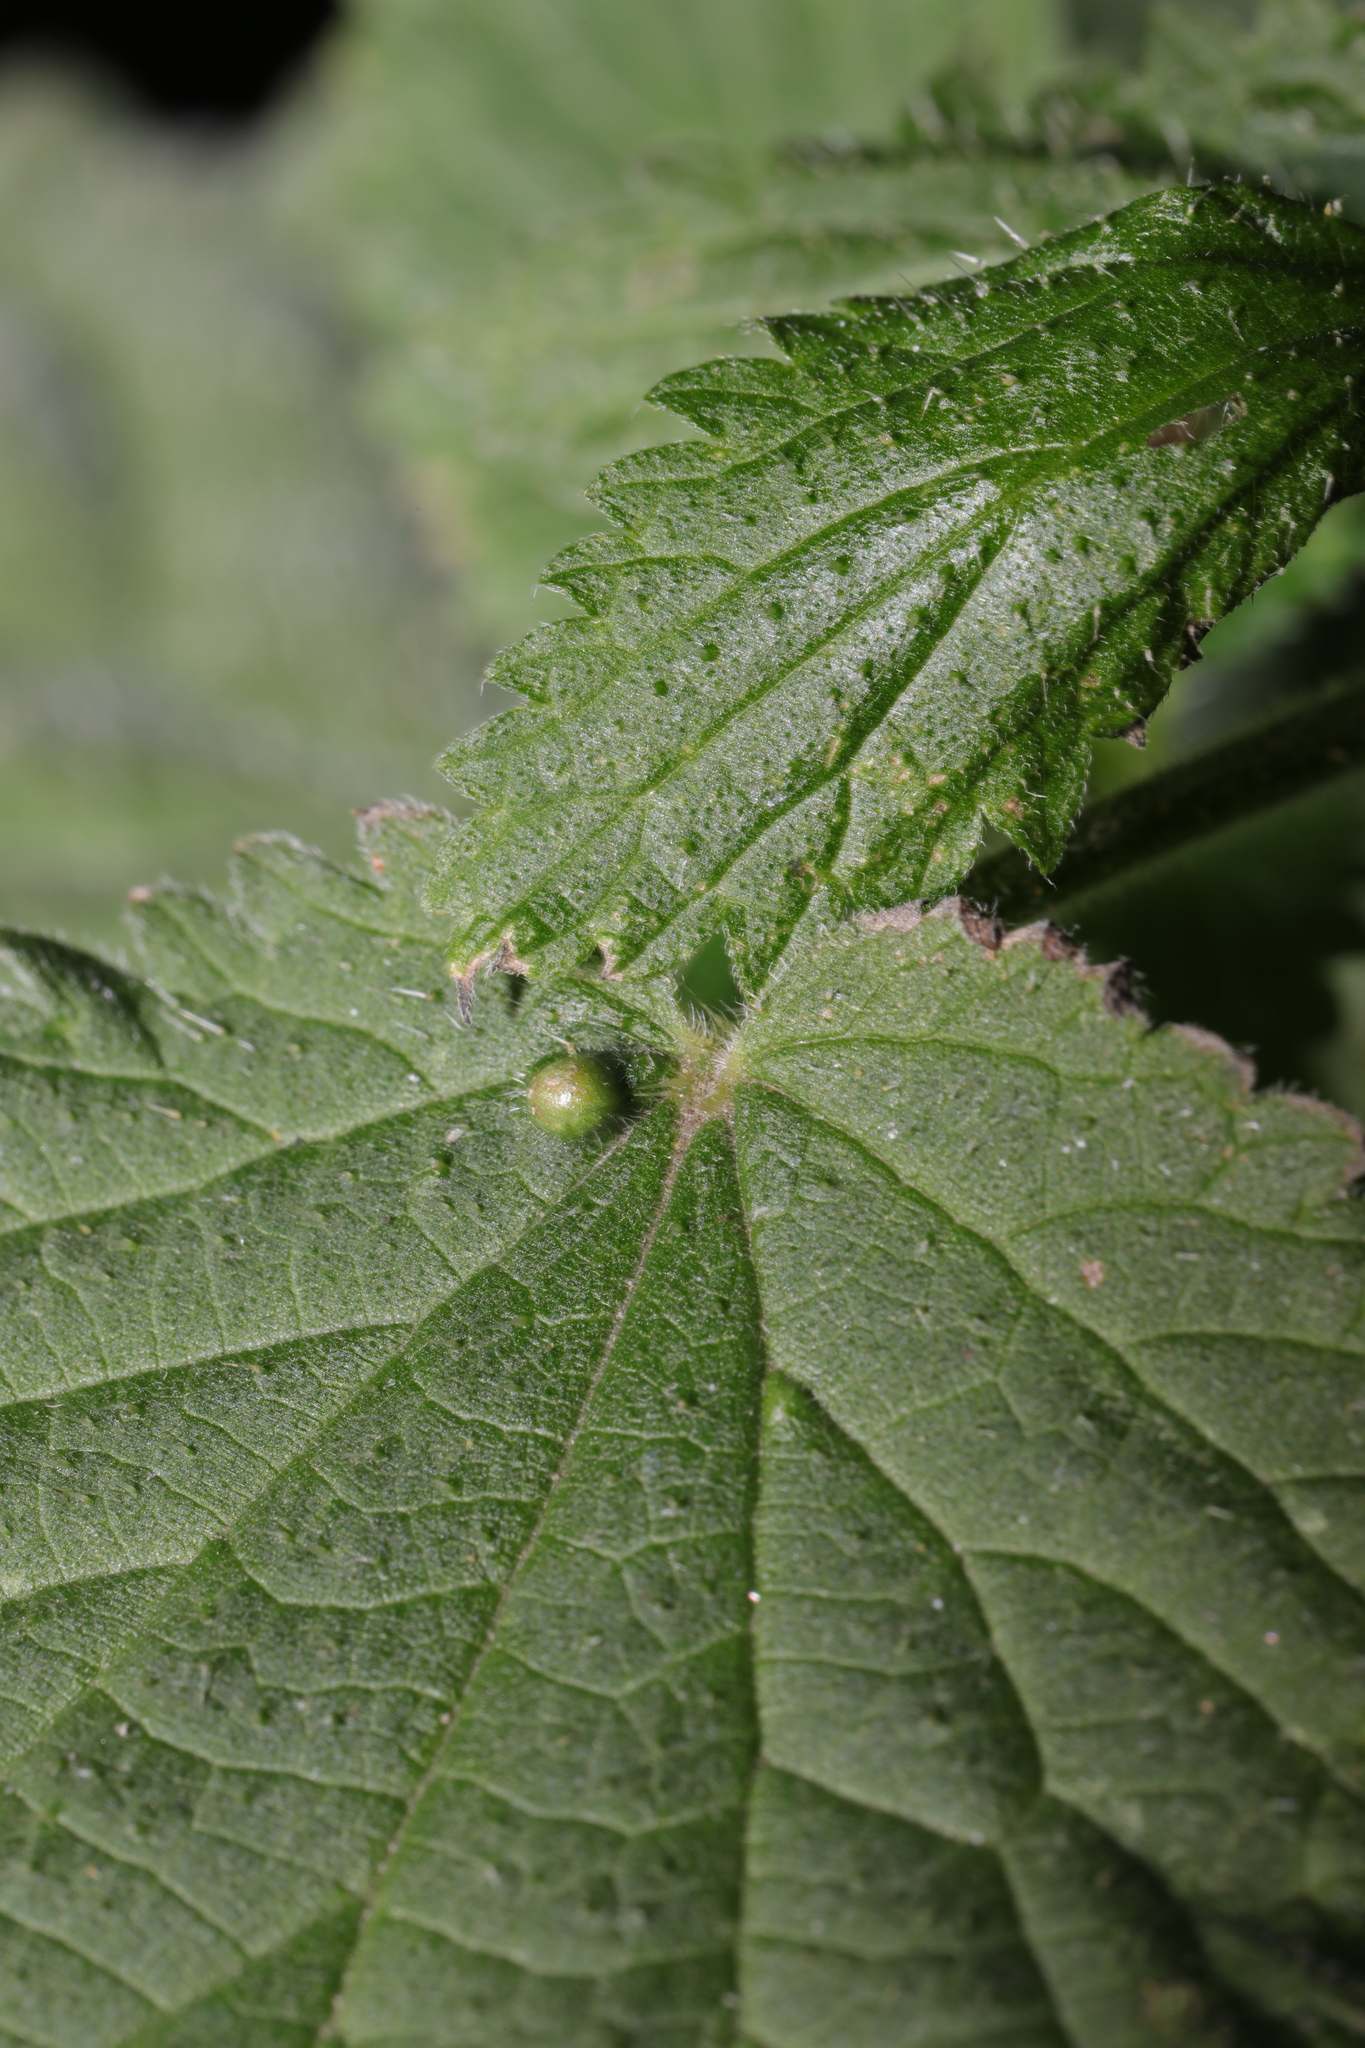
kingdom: Animalia
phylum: Arthropoda
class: Insecta
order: Diptera
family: Cecidomyiidae
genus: Dasineura
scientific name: Dasineura urticae
